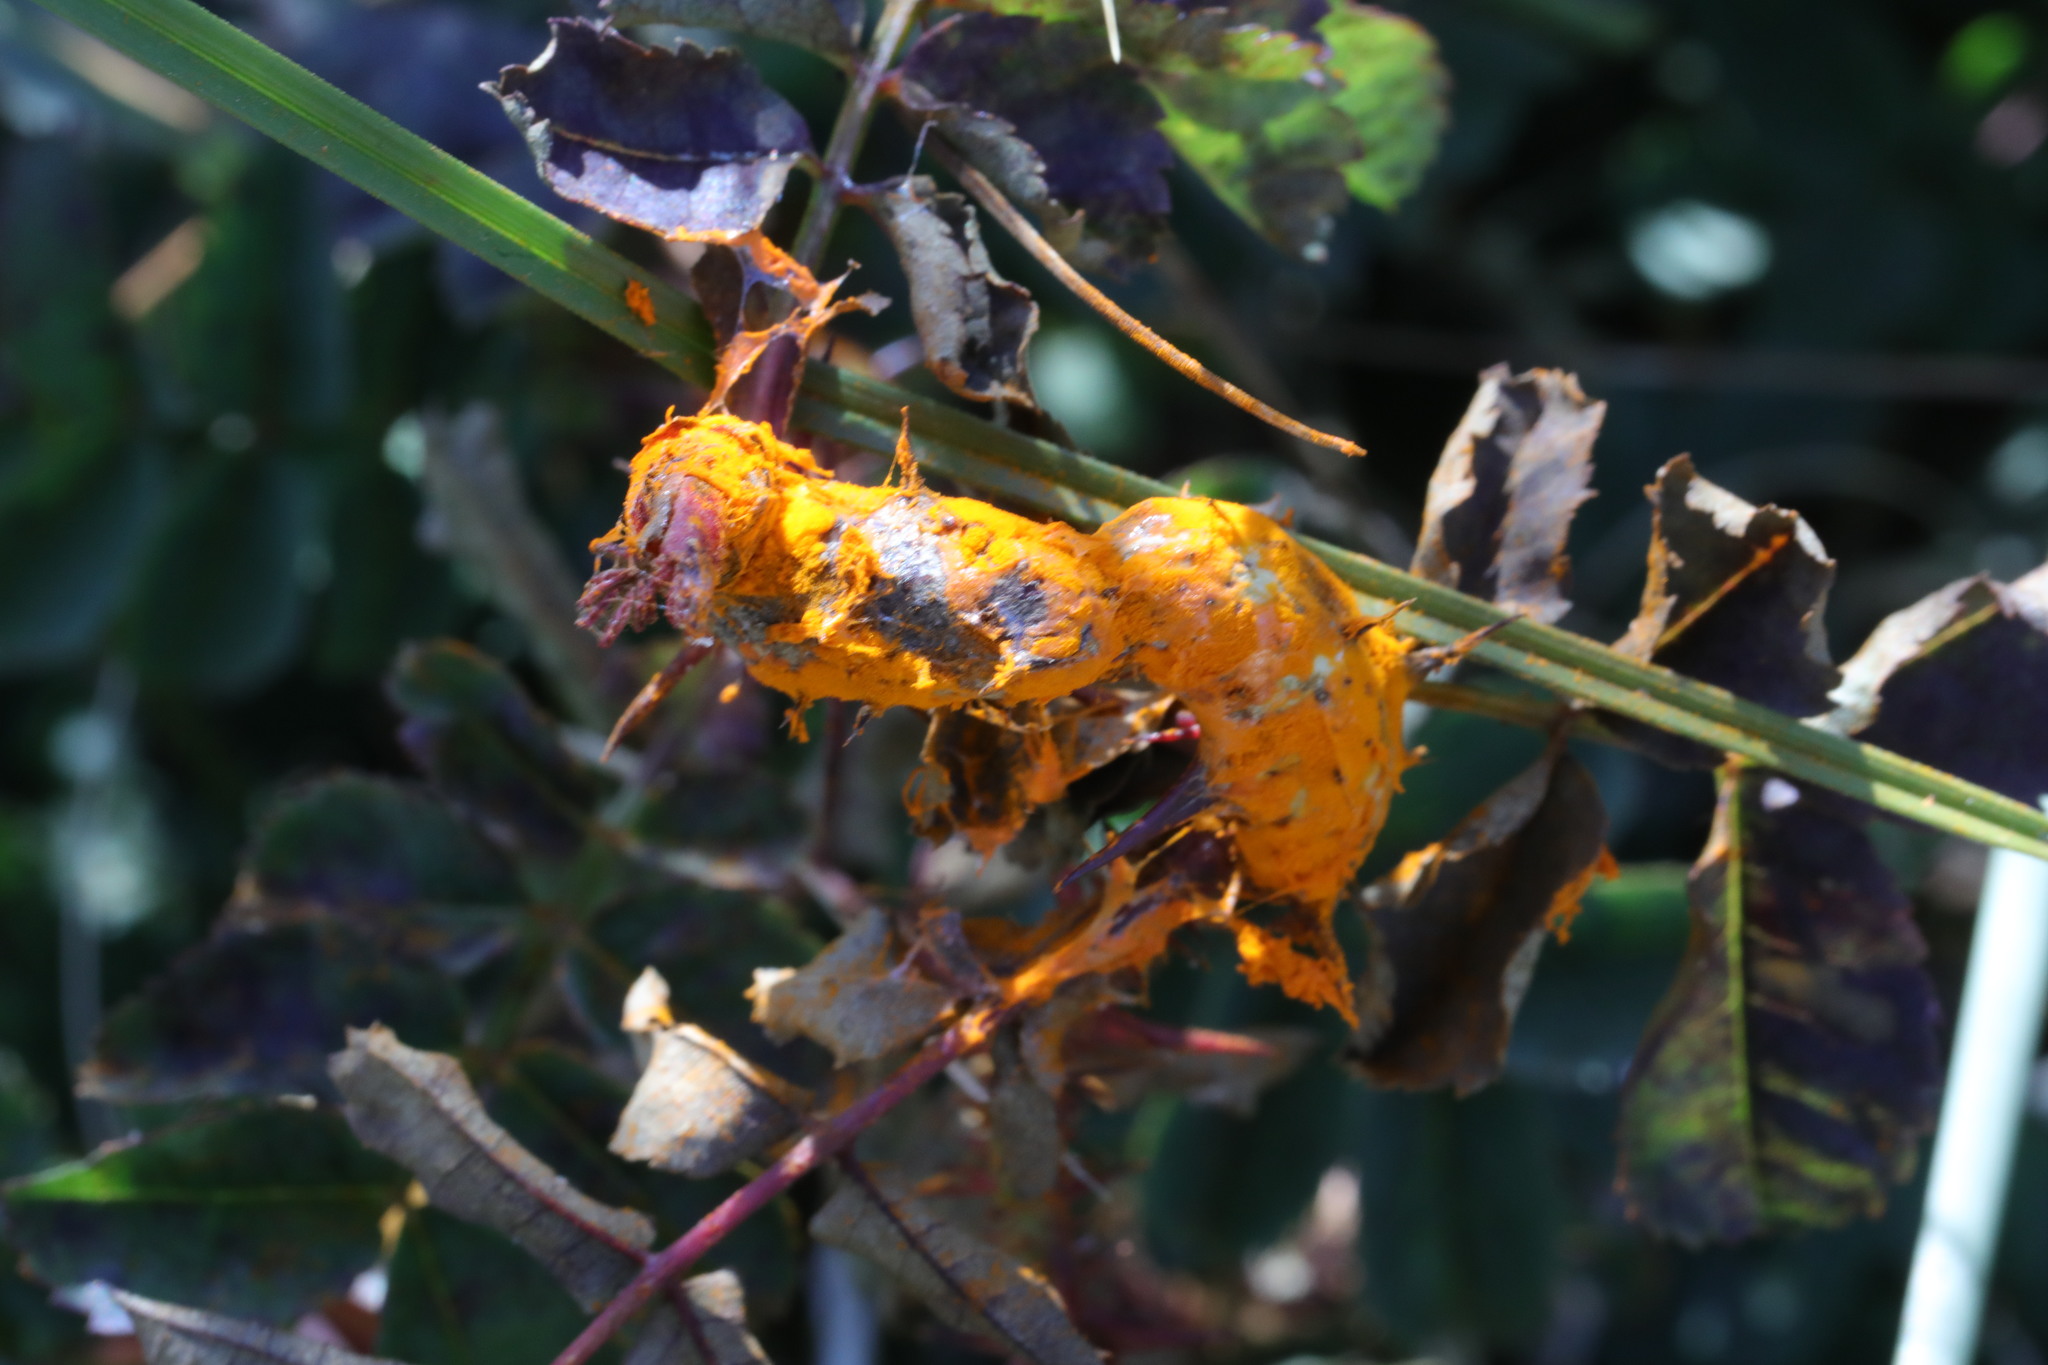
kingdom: Fungi
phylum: Basidiomycota
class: Pucciniomycetes
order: Pucciniales
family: Phragmidiaceae
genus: Phragmidium
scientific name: Phragmidium rosae-pimpinellifoliae
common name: Burnet rose rust
